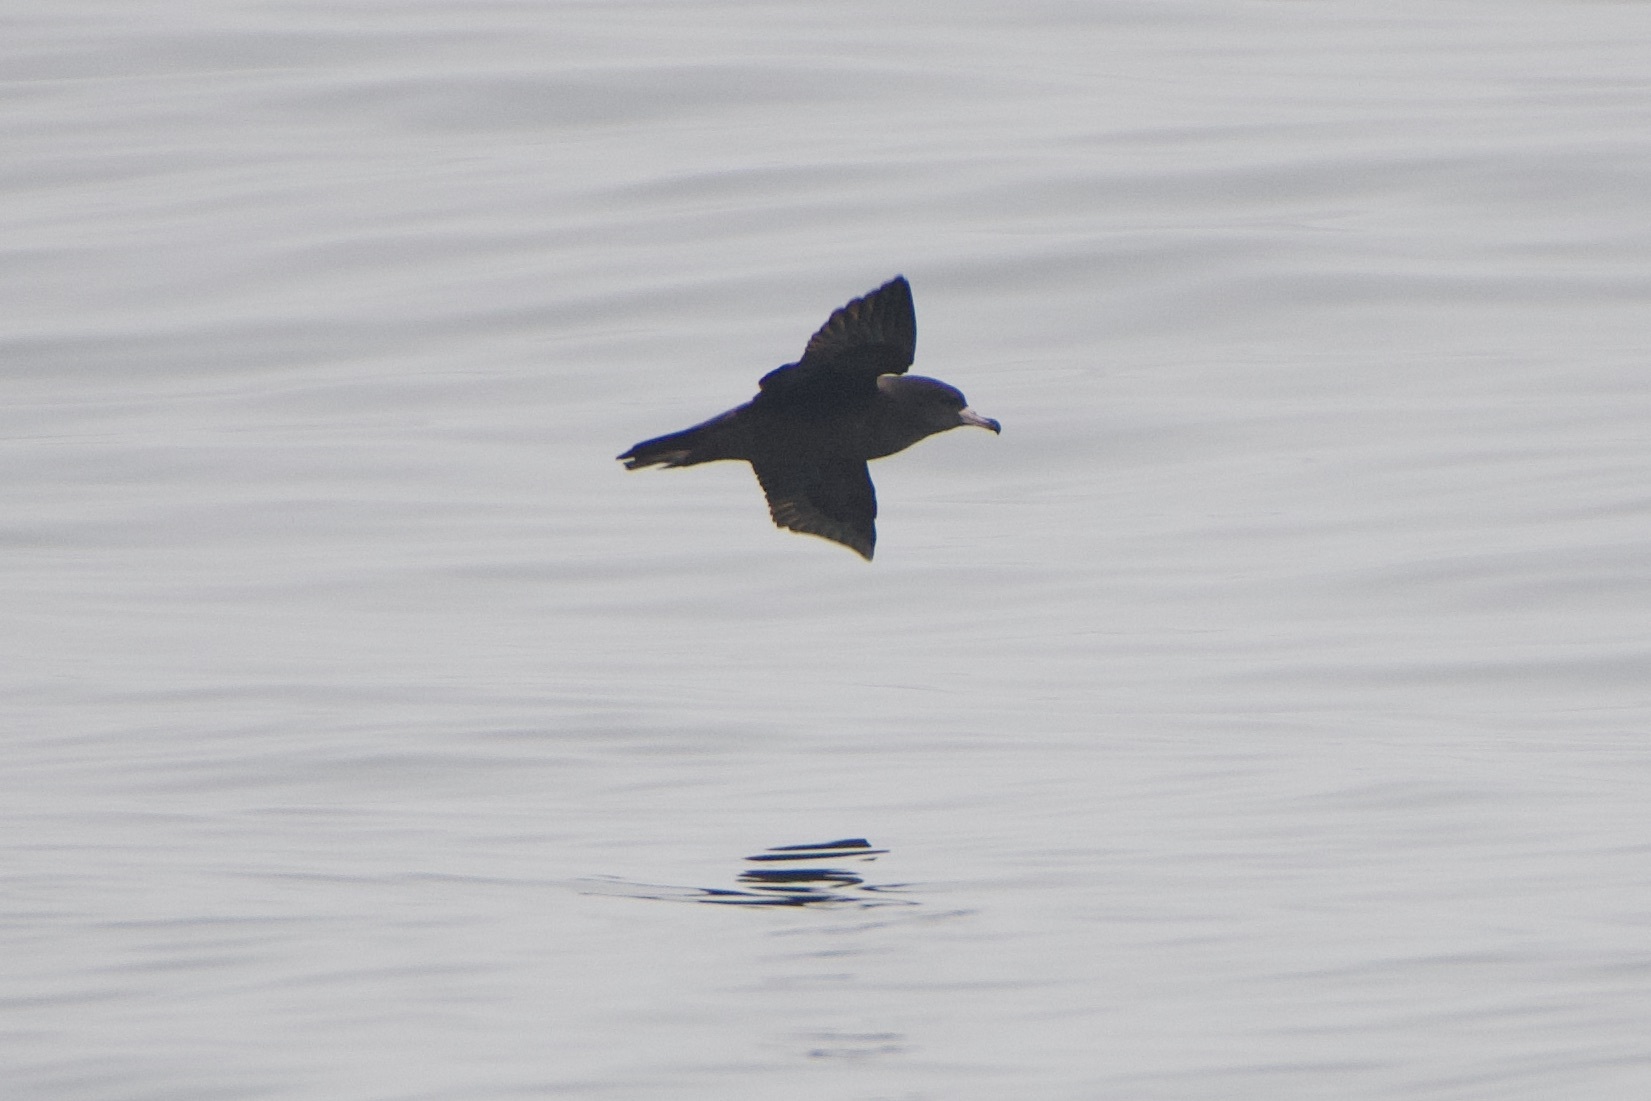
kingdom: Animalia
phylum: Chordata
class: Aves
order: Procellariiformes
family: Procellariidae
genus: Puffinus
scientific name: Puffinus carneipes
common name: Flesh-footed shearwater
